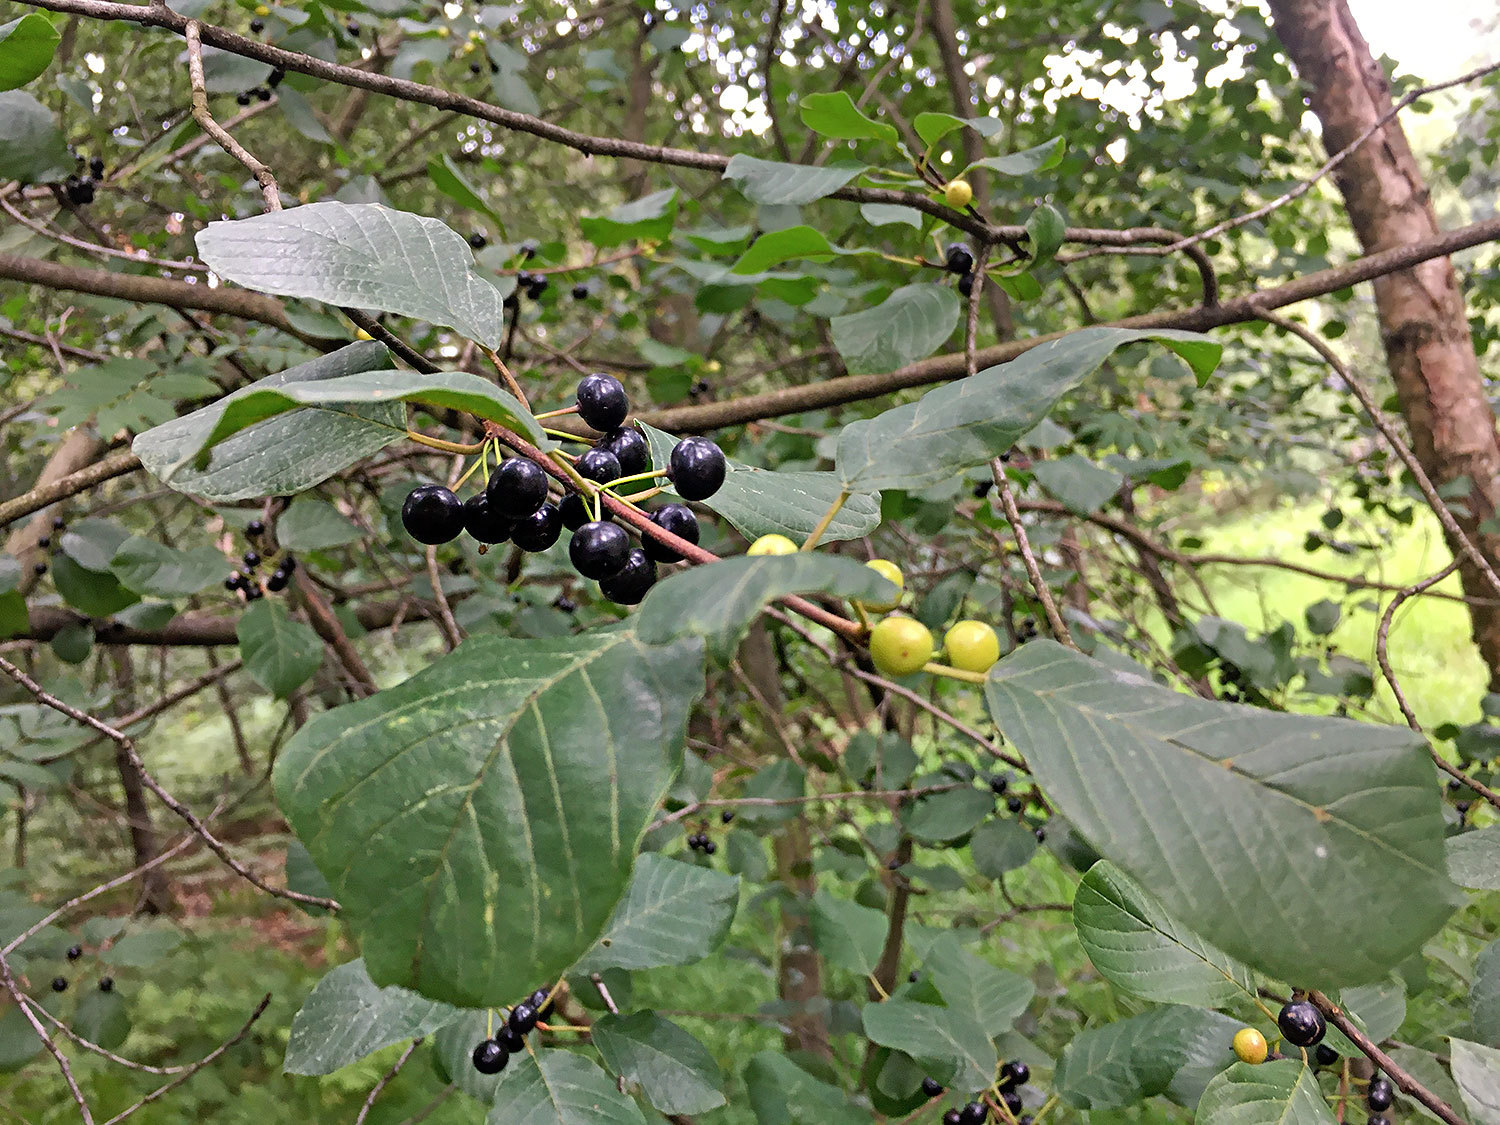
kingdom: Plantae
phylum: Tracheophyta
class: Magnoliopsida
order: Rosales
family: Rhamnaceae
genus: Frangula
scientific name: Frangula alnus
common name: Alder buckthorn
